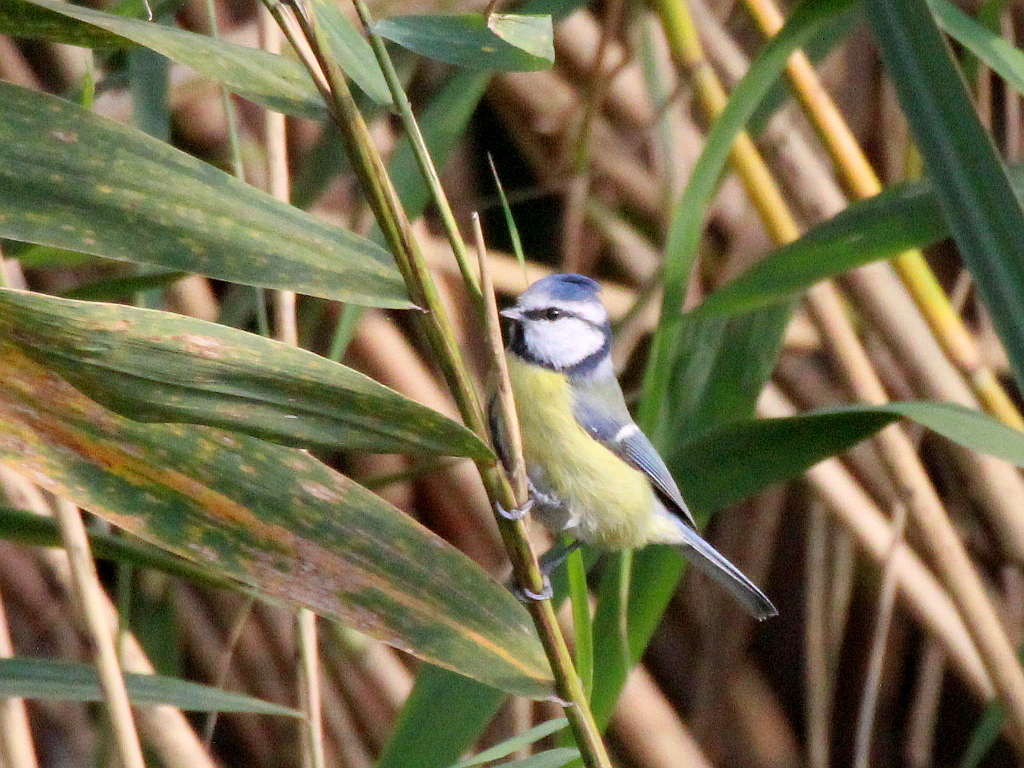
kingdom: Animalia
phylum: Chordata
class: Aves
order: Passeriformes
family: Paridae
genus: Cyanistes
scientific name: Cyanistes caeruleus
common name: Eurasian blue tit
